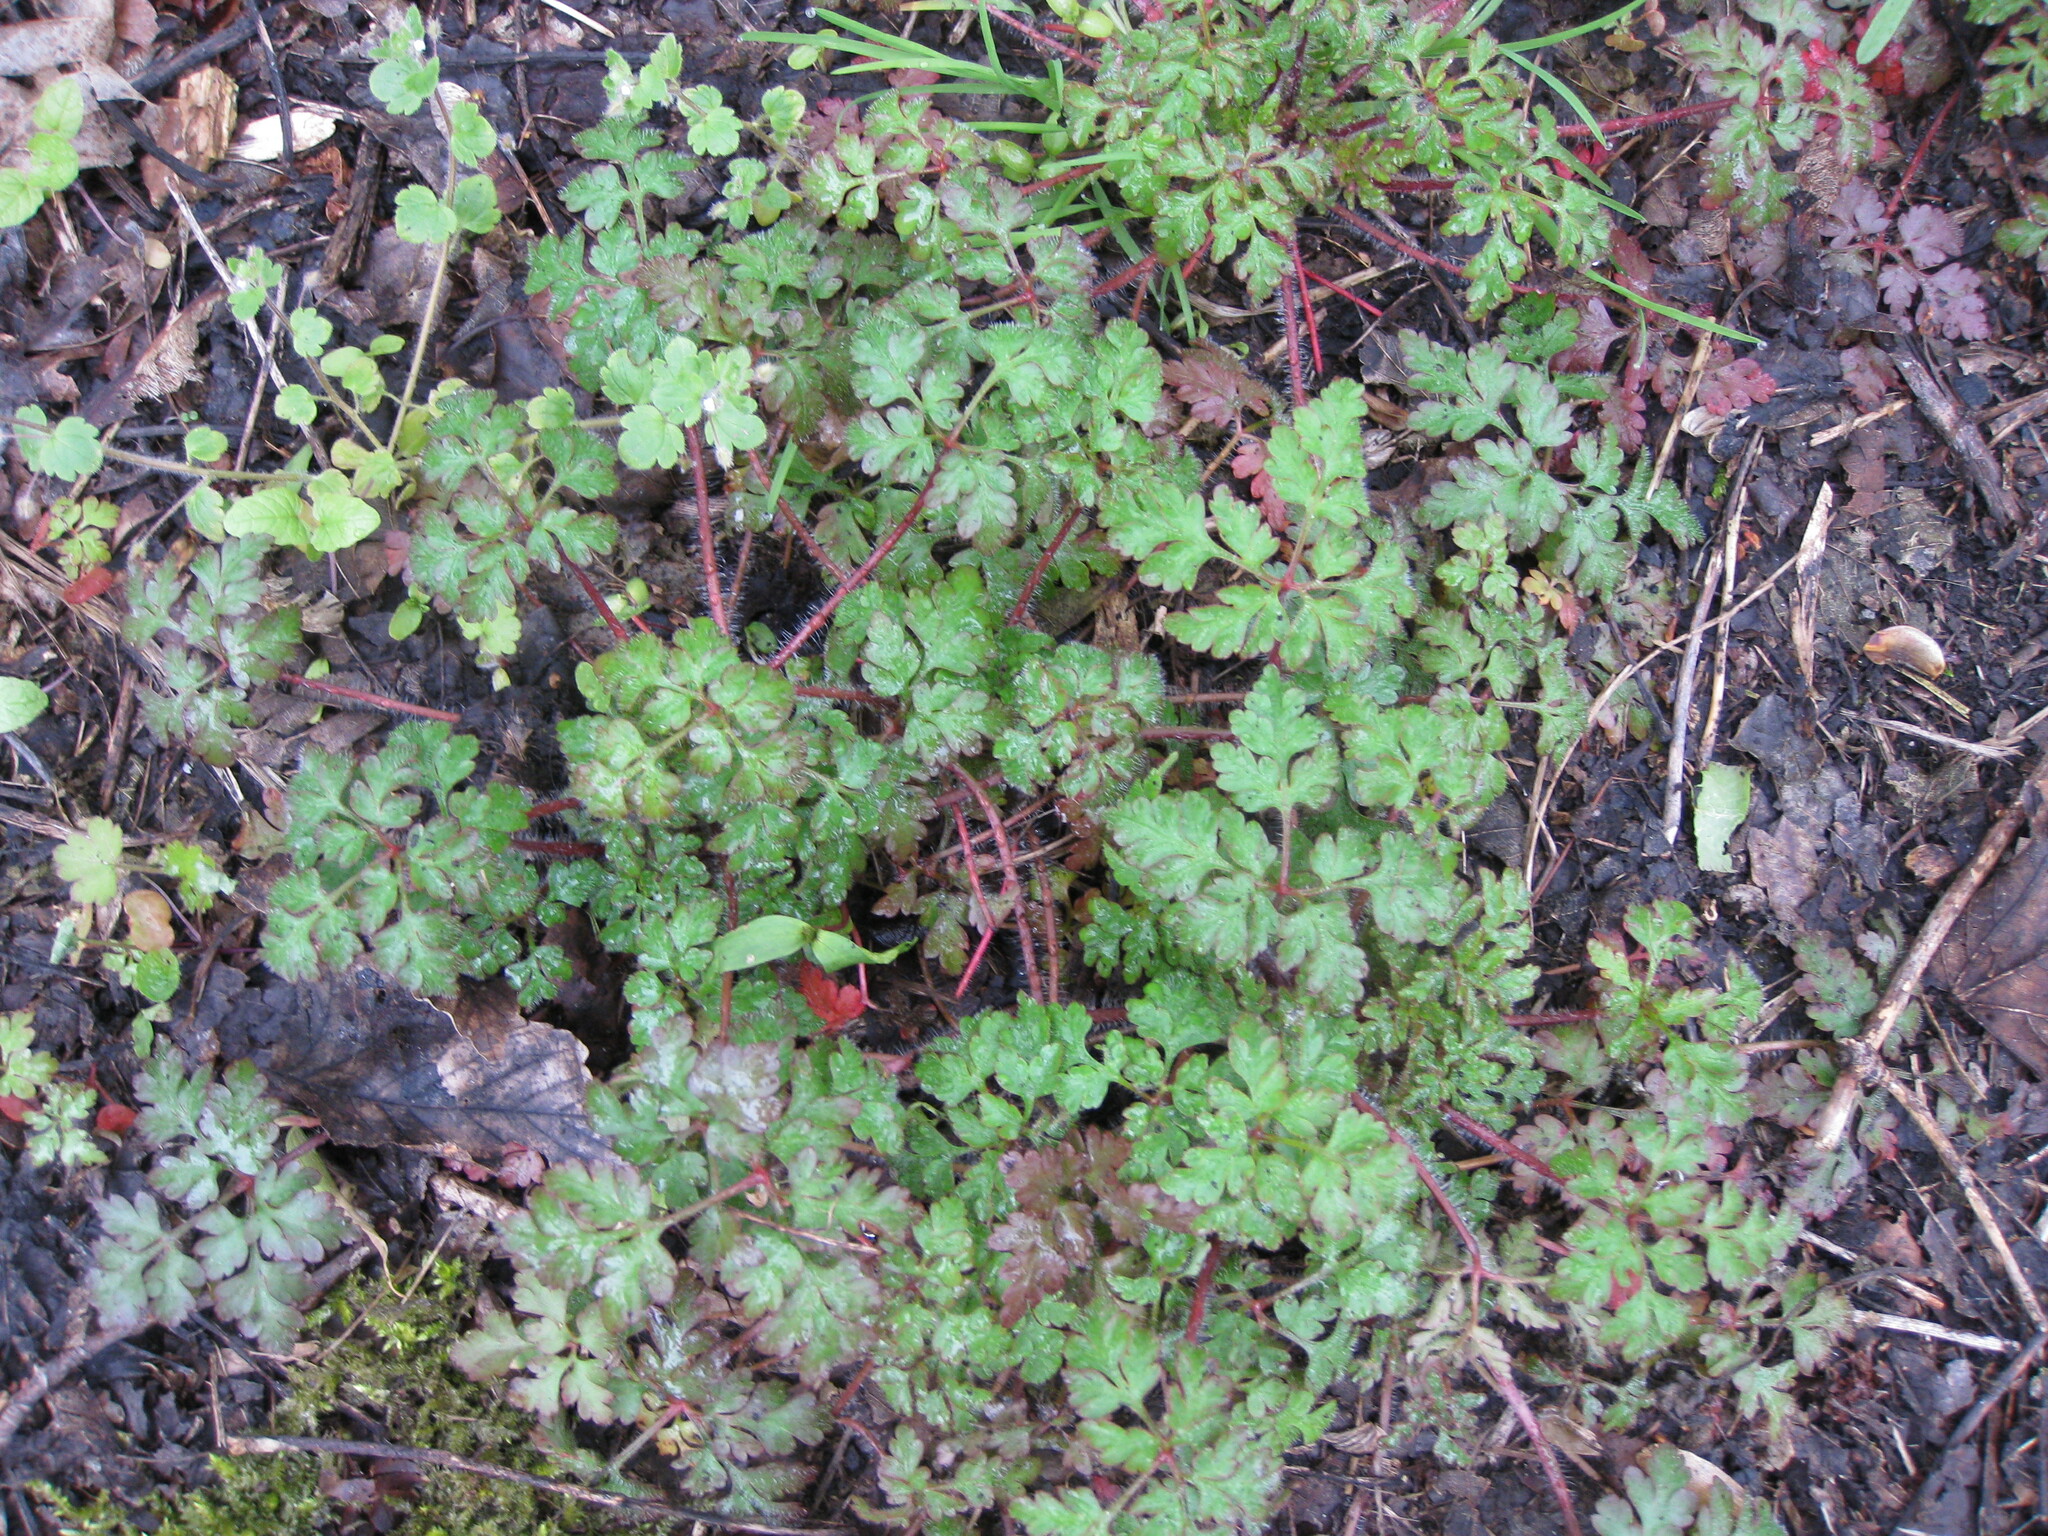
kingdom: Plantae
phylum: Tracheophyta
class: Magnoliopsida
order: Geraniales
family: Geraniaceae
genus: Geranium
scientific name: Geranium robertianum
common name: Herb-robert
